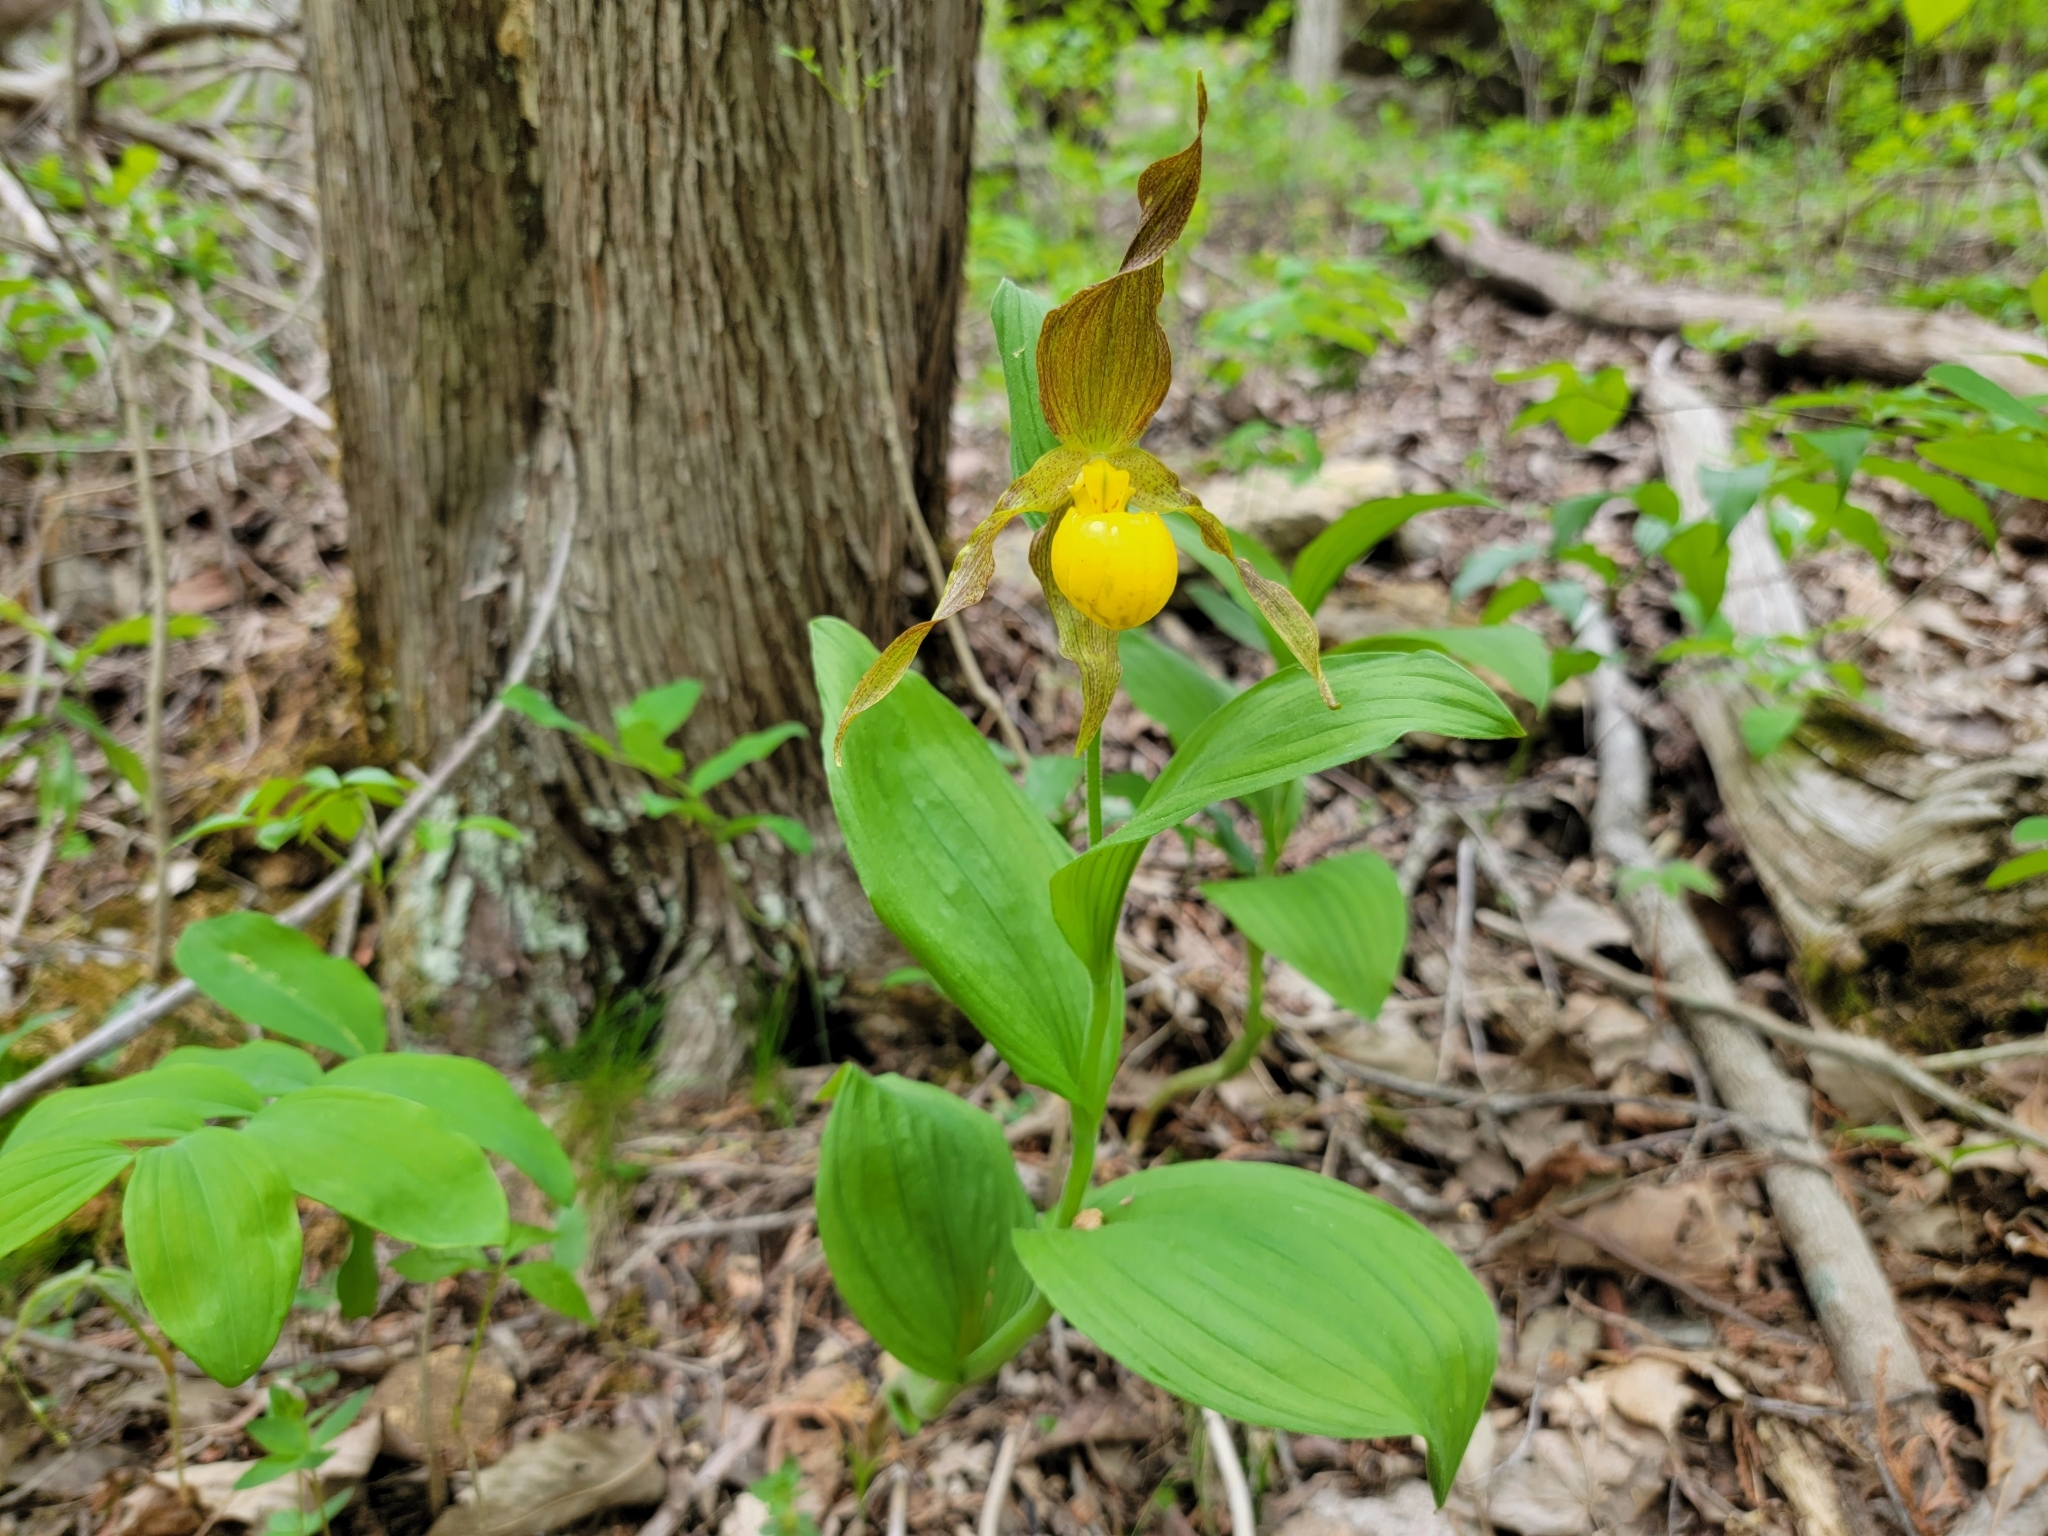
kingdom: Plantae
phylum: Tracheophyta
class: Liliopsida
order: Asparagales
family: Orchidaceae
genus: Cypripedium
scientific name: Cypripedium parviflorum
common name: American yellow lady's-slipper
